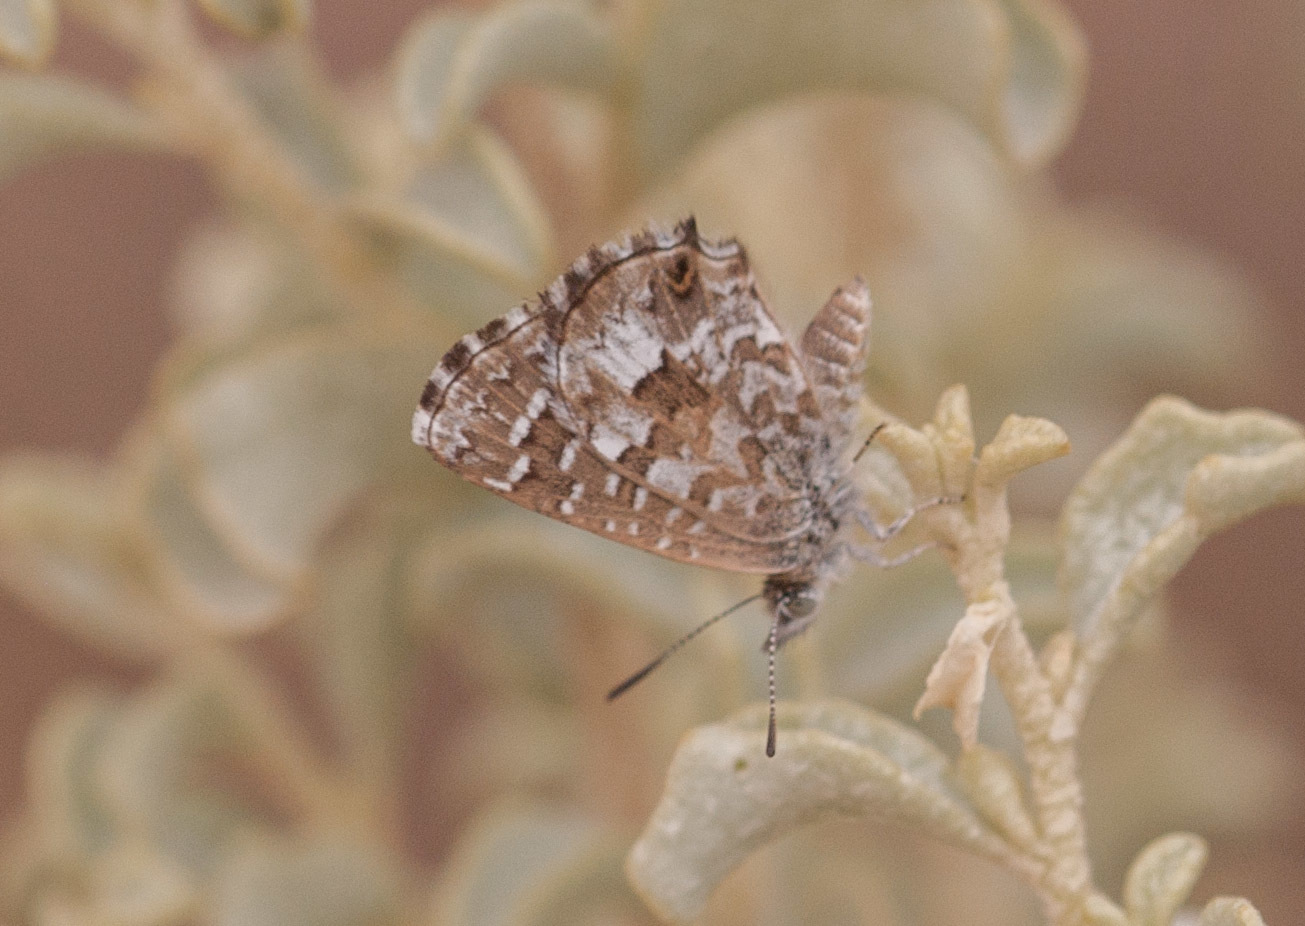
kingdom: Animalia
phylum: Arthropoda
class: Insecta
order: Lepidoptera
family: Lycaenidae
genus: Theclinesthes
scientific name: Theclinesthes serpentata
